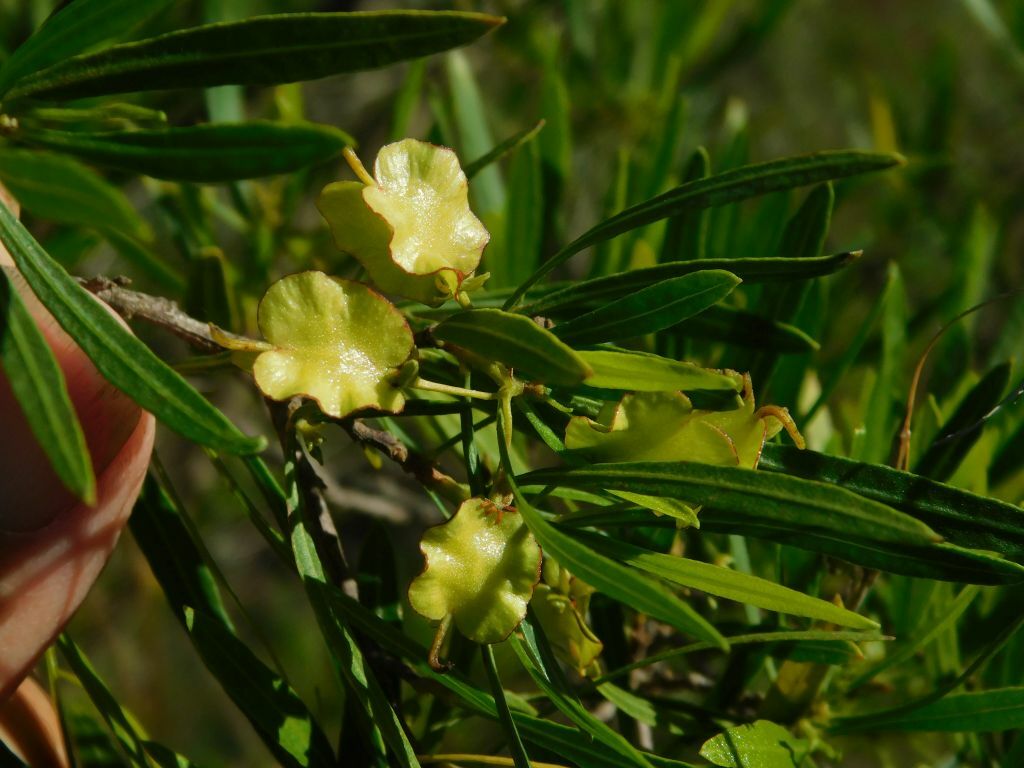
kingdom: Plantae
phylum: Tracheophyta
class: Magnoliopsida
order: Sapindales
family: Sapindaceae
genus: Dodonaea
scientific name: Dodonaea viscosa
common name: Hopbush
